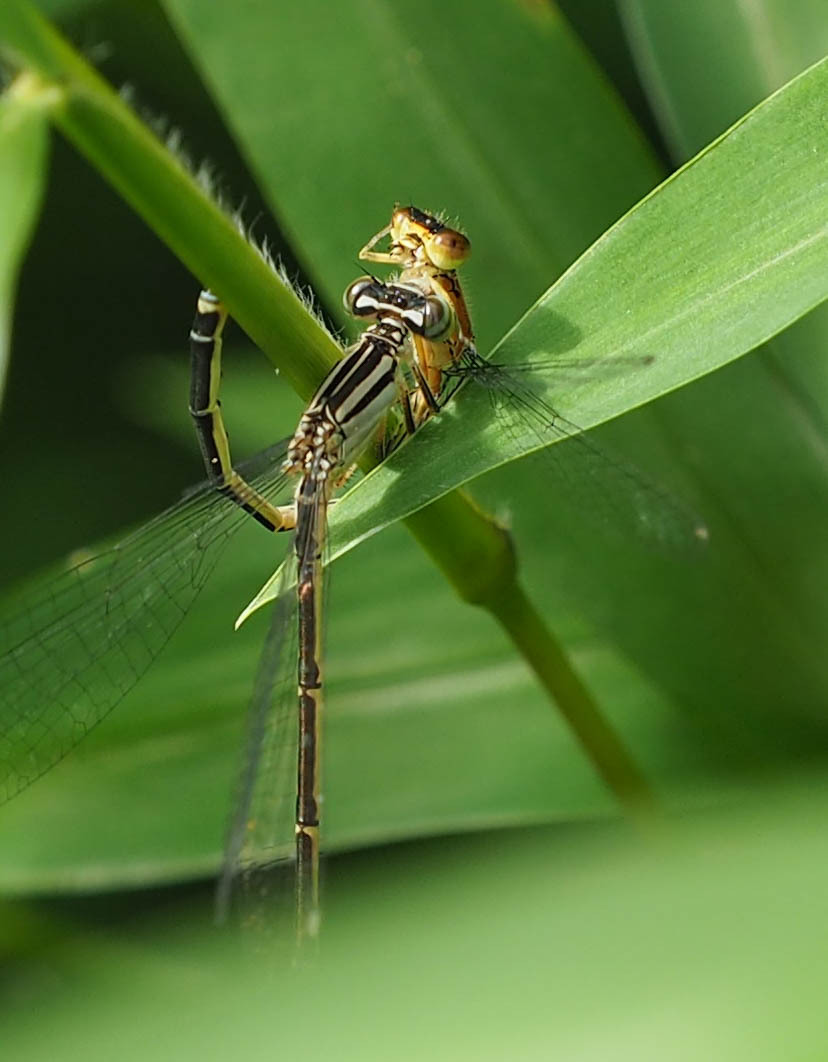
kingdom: Animalia
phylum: Arthropoda
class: Insecta
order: Odonata
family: Coenagrionidae
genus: Enallagma
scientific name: Enallagma durum
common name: Big bluet
